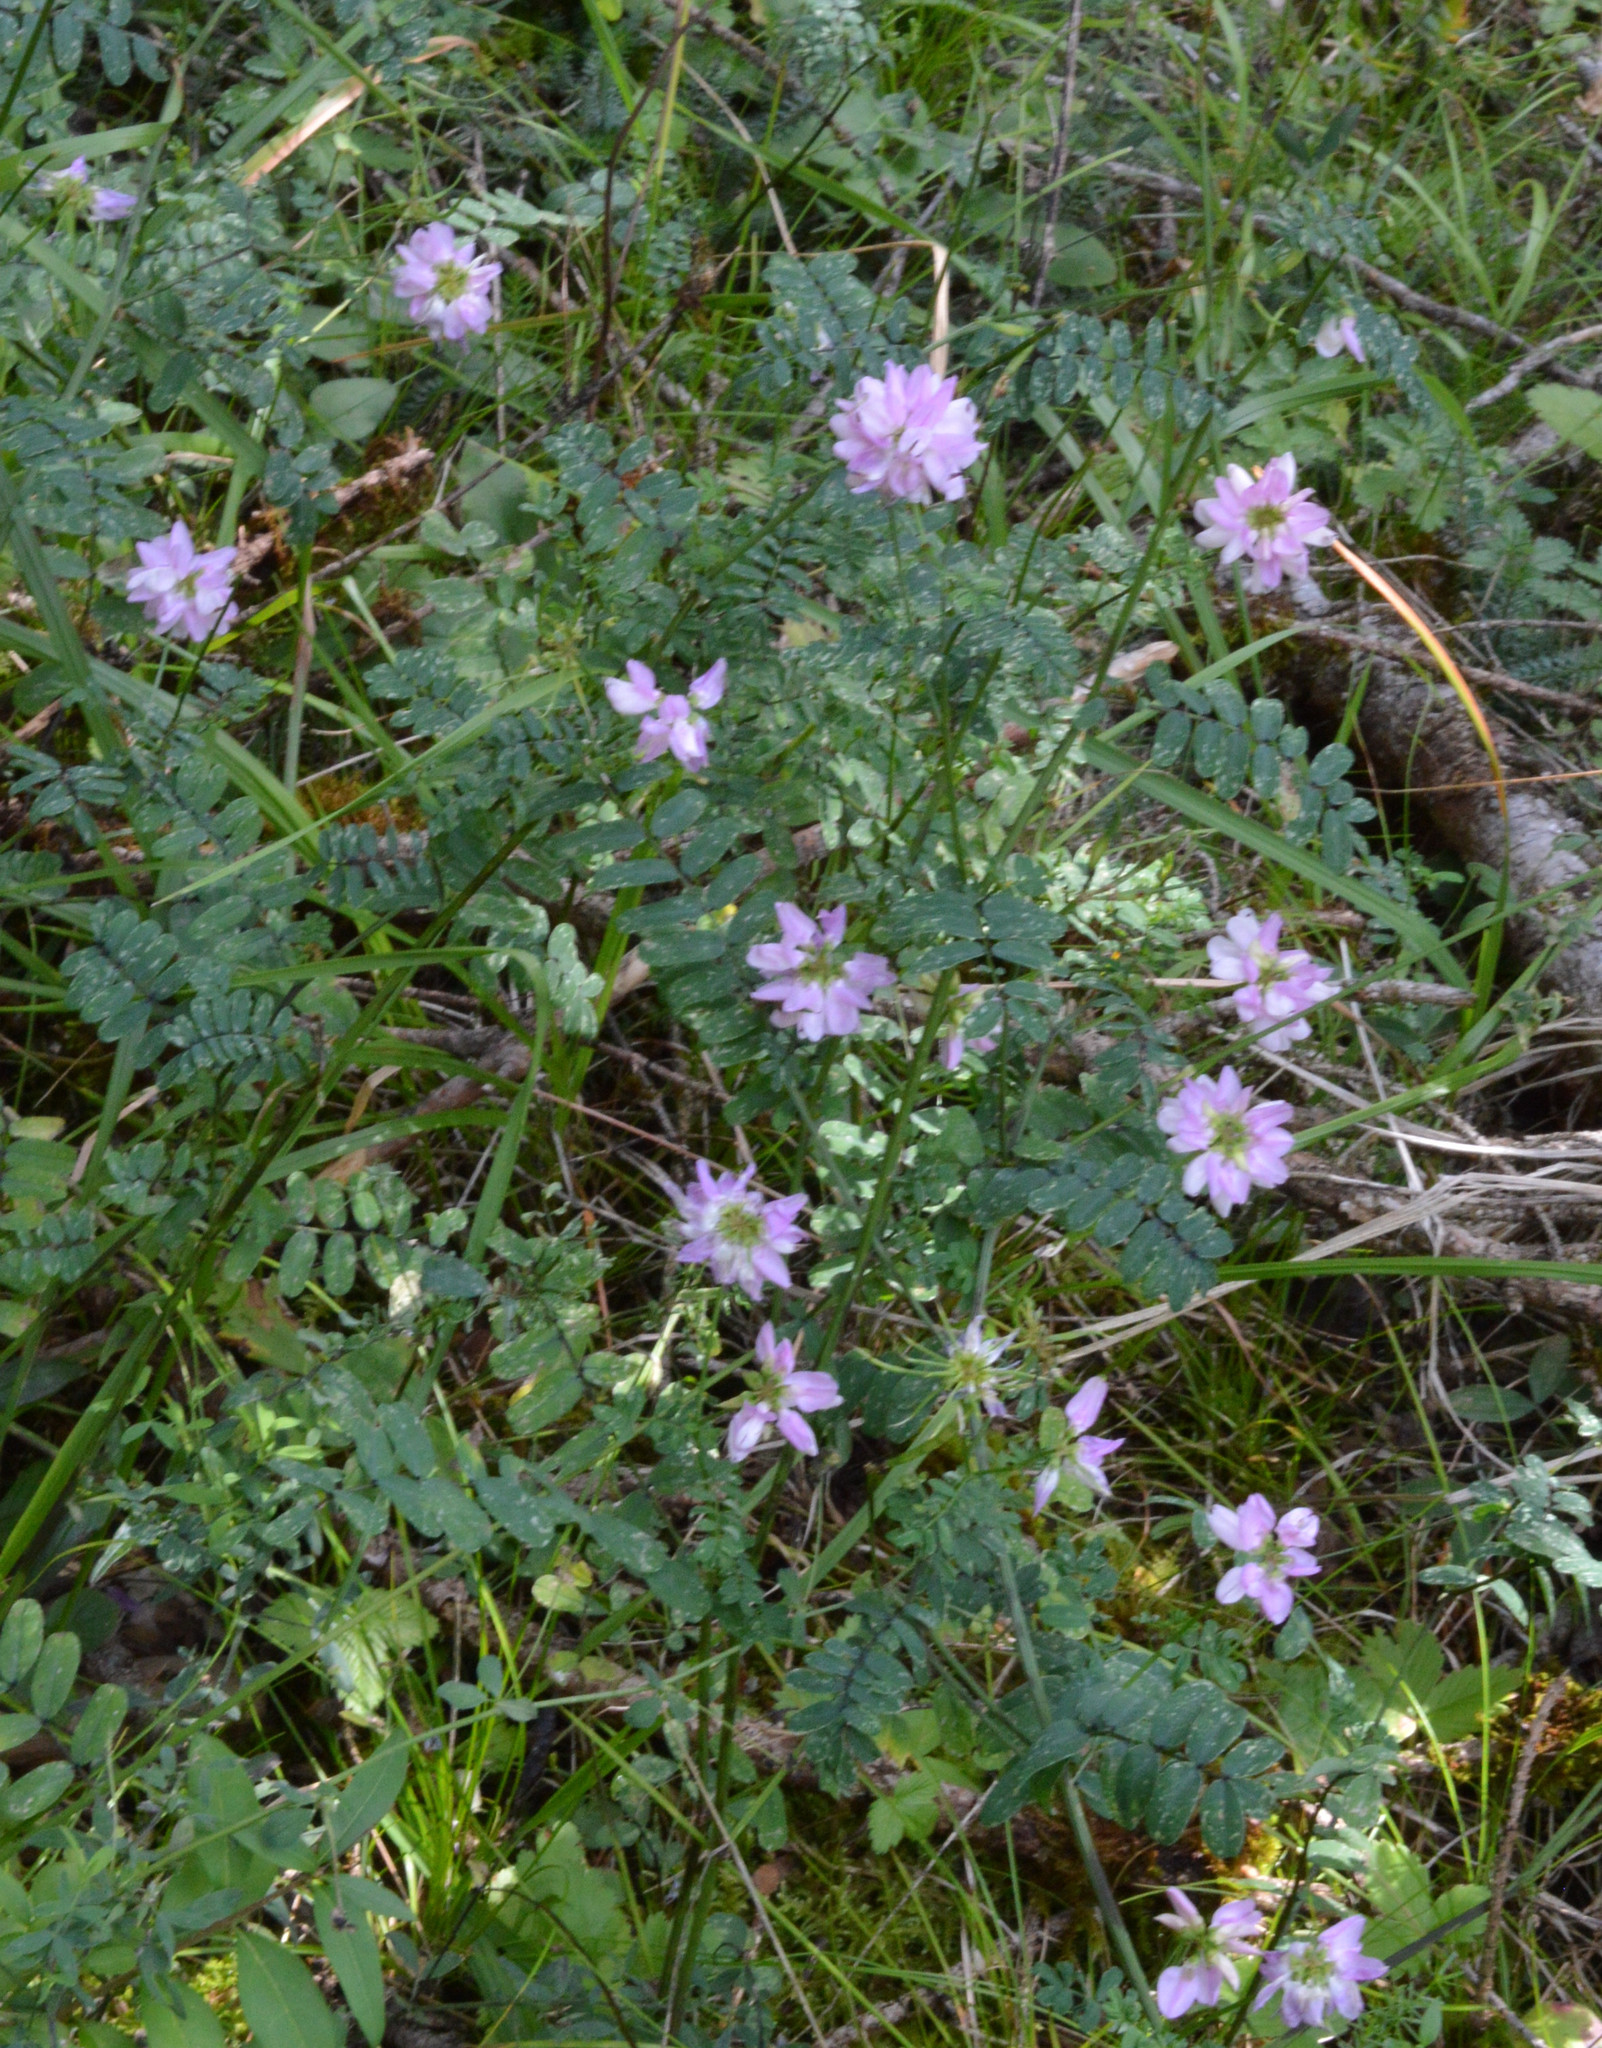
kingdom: Plantae
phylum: Tracheophyta
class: Magnoliopsida
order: Fabales
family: Fabaceae
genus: Coronilla
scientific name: Coronilla varia
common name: Crownvetch
